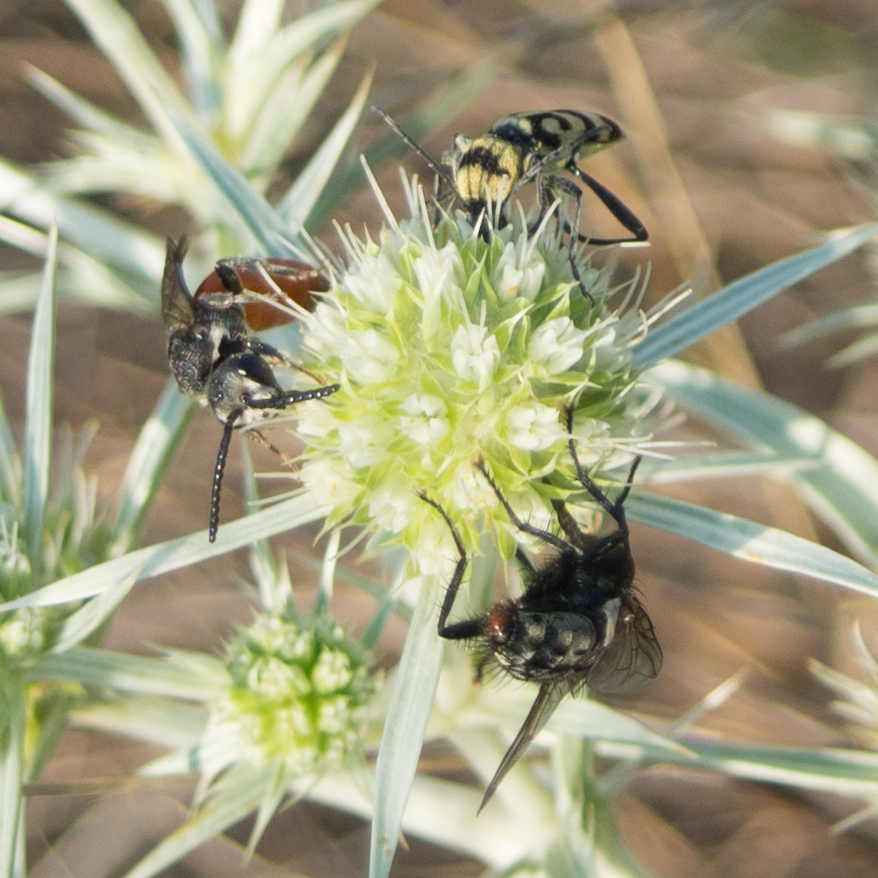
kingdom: Animalia
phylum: Arthropoda
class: Insecta
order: Coleoptera
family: Cerambycidae
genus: Chlorophorus
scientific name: Chlorophorus varius
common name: Grape wood borer
